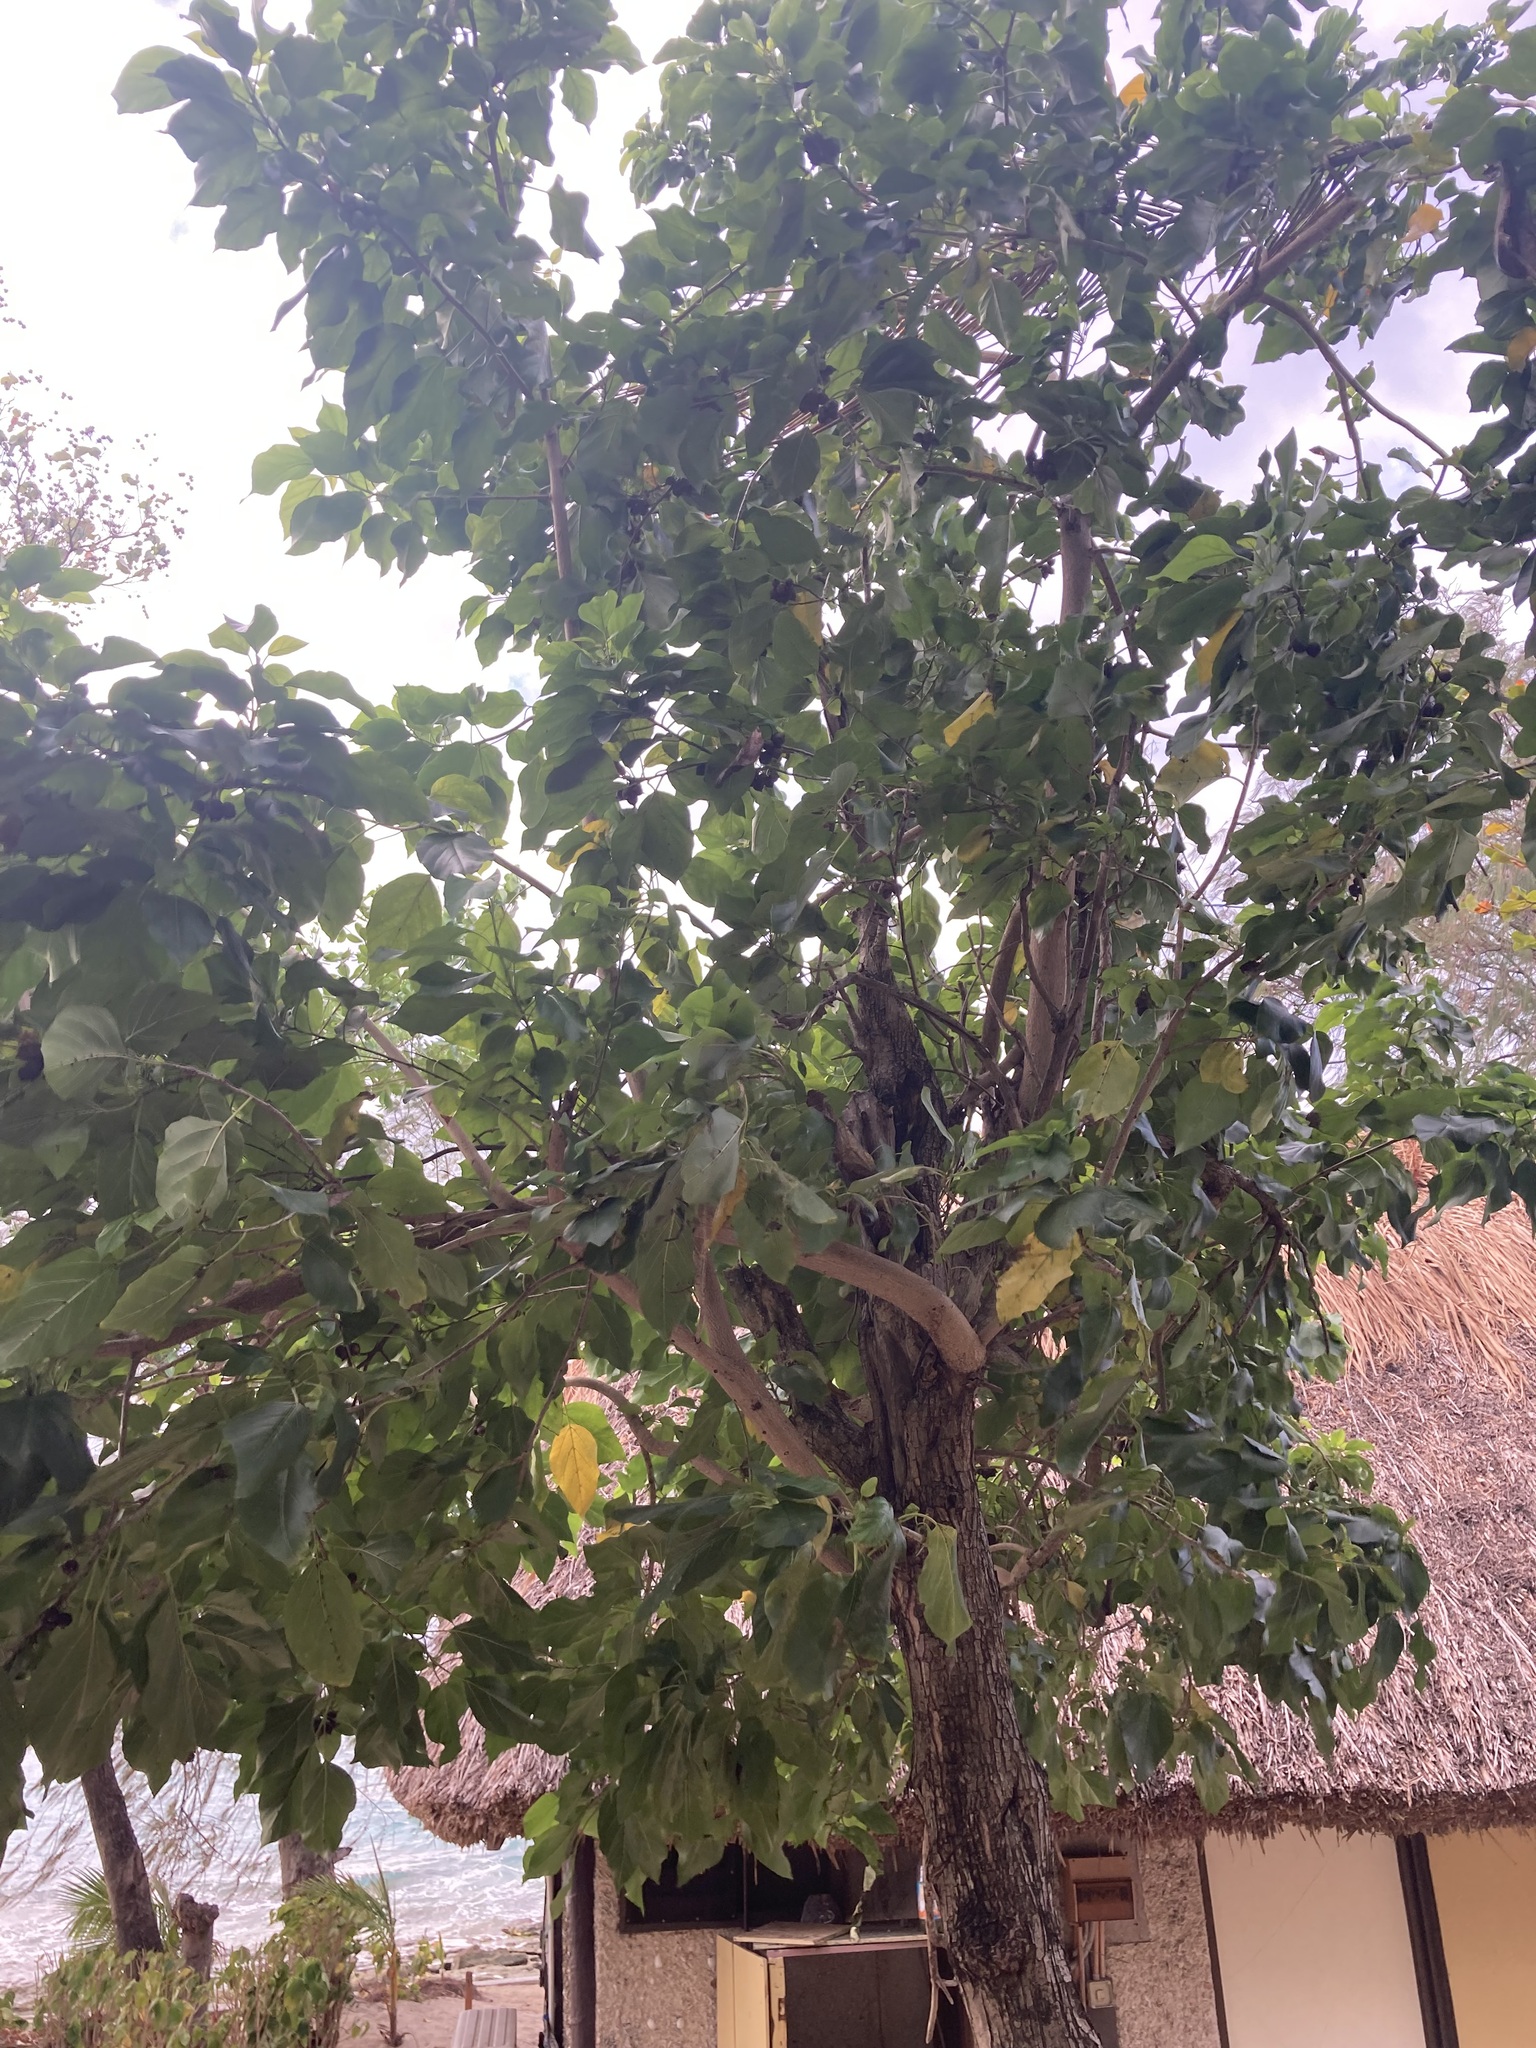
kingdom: Plantae
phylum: Tracheophyta
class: Magnoliopsida
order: Boraginales
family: Cordiaceae
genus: Cordia
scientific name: Cordia subcordata
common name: Mareer
